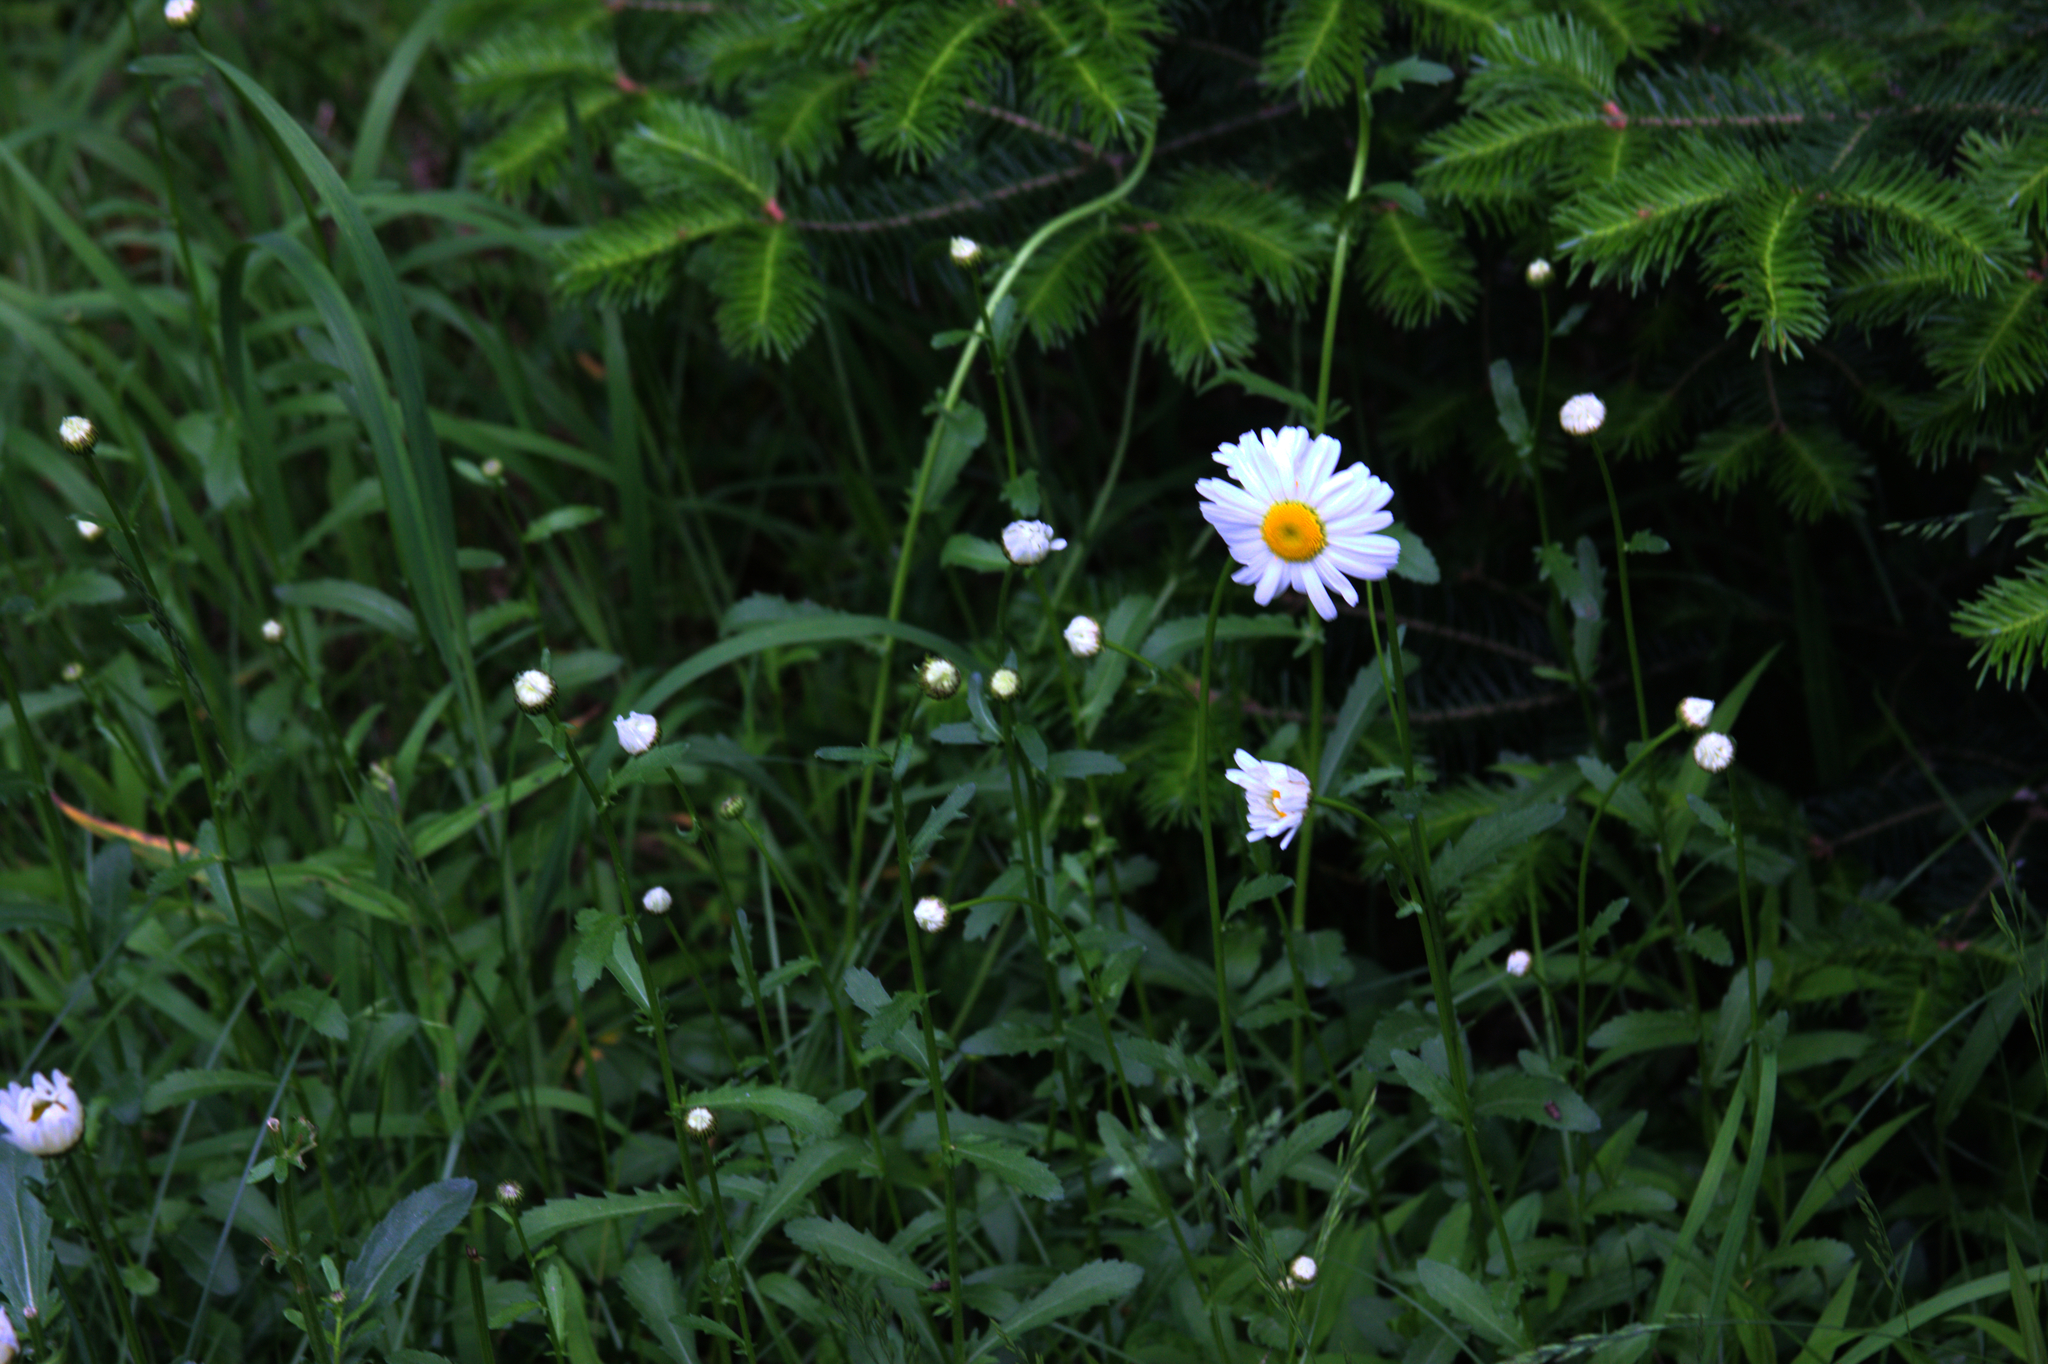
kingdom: Plantae
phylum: Tracheophyta
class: Magnoliopsida
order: Asterales
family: Asteraceae
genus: Leucanthemum
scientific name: Leucanthemum vulgare
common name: Oxeye daisy
